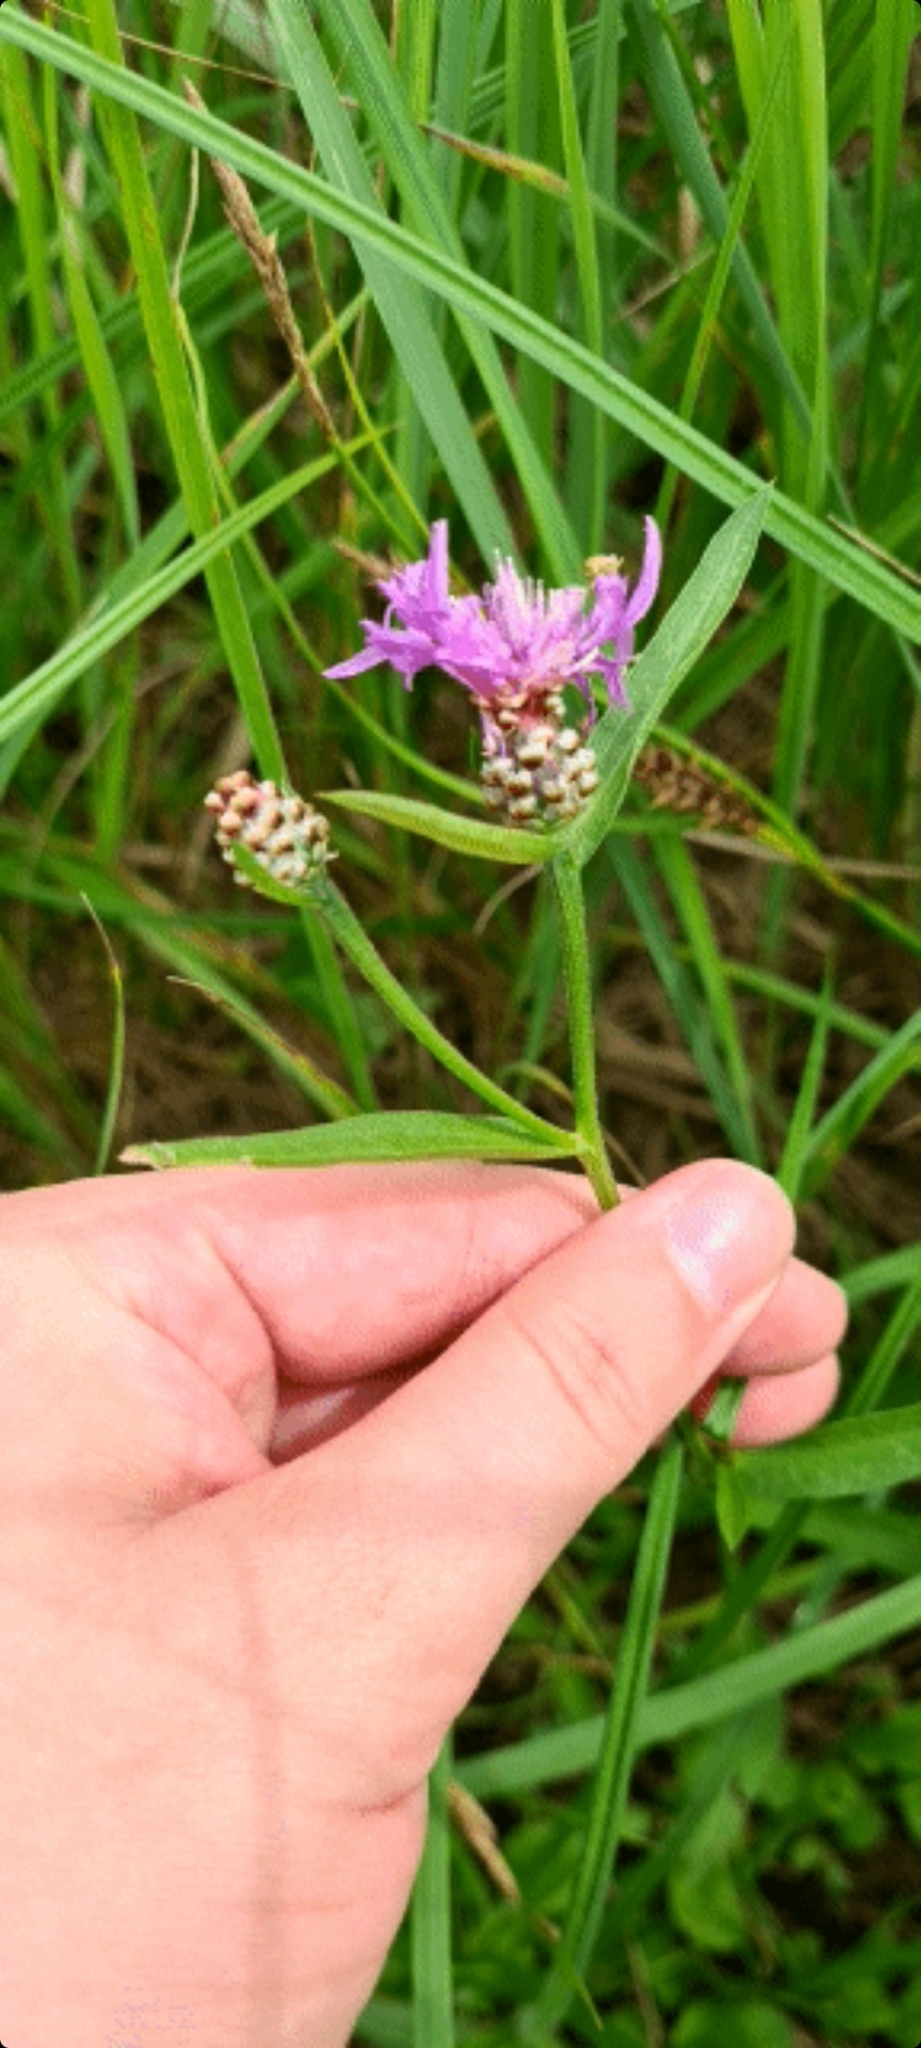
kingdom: Plantae
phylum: Tracheophyta
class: Magnoliopsida
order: Asterales
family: Asteraceae
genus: Centaurea
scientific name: Centaurea jacea
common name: Brown knapweed
